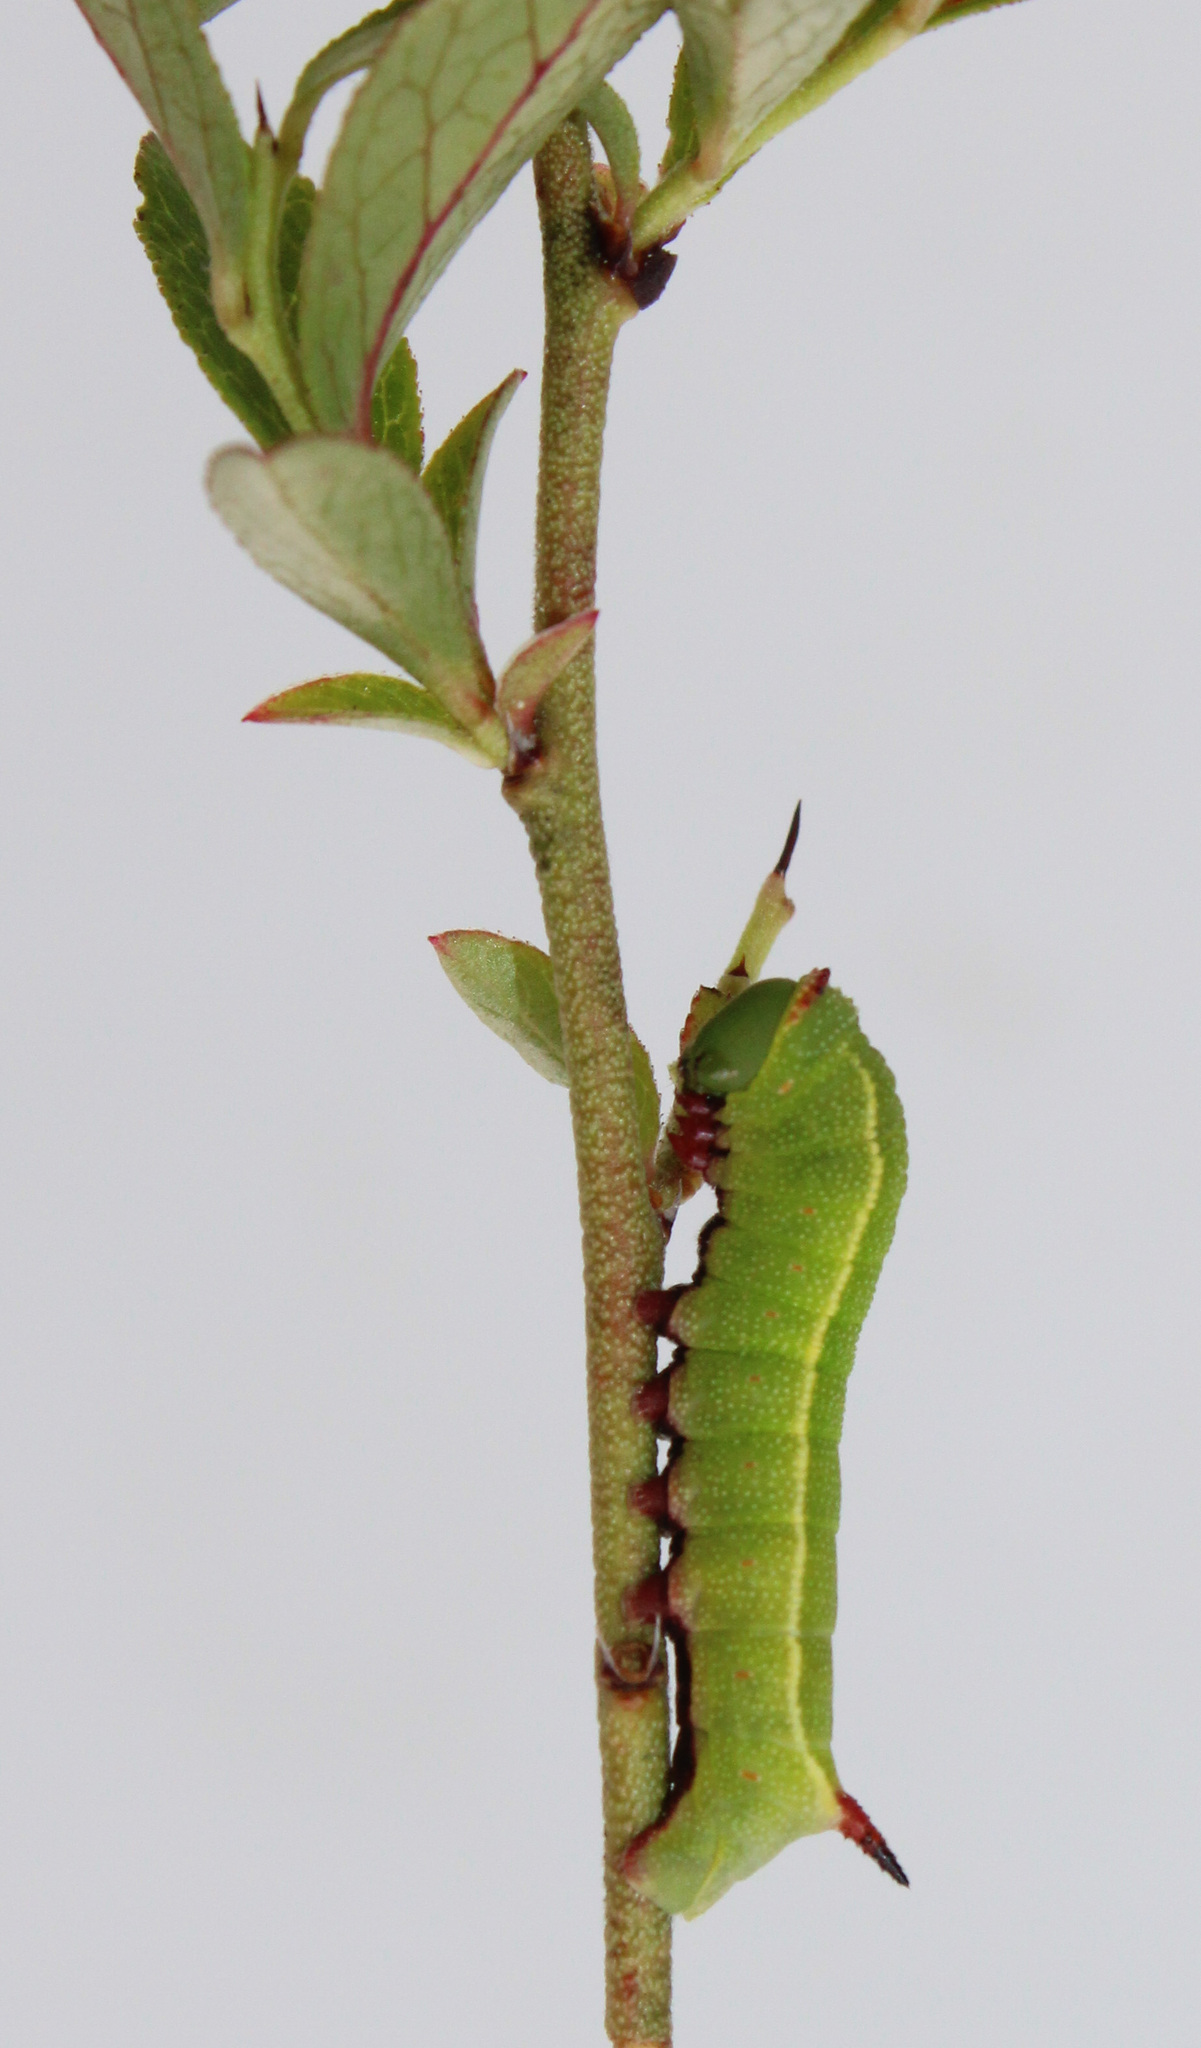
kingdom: Animalia
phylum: Arthropoda
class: Insecta
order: Lepidoptera
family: Sphingidae
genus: Hemaris
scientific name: Hemaris gracilis
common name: Graceful clearwing
